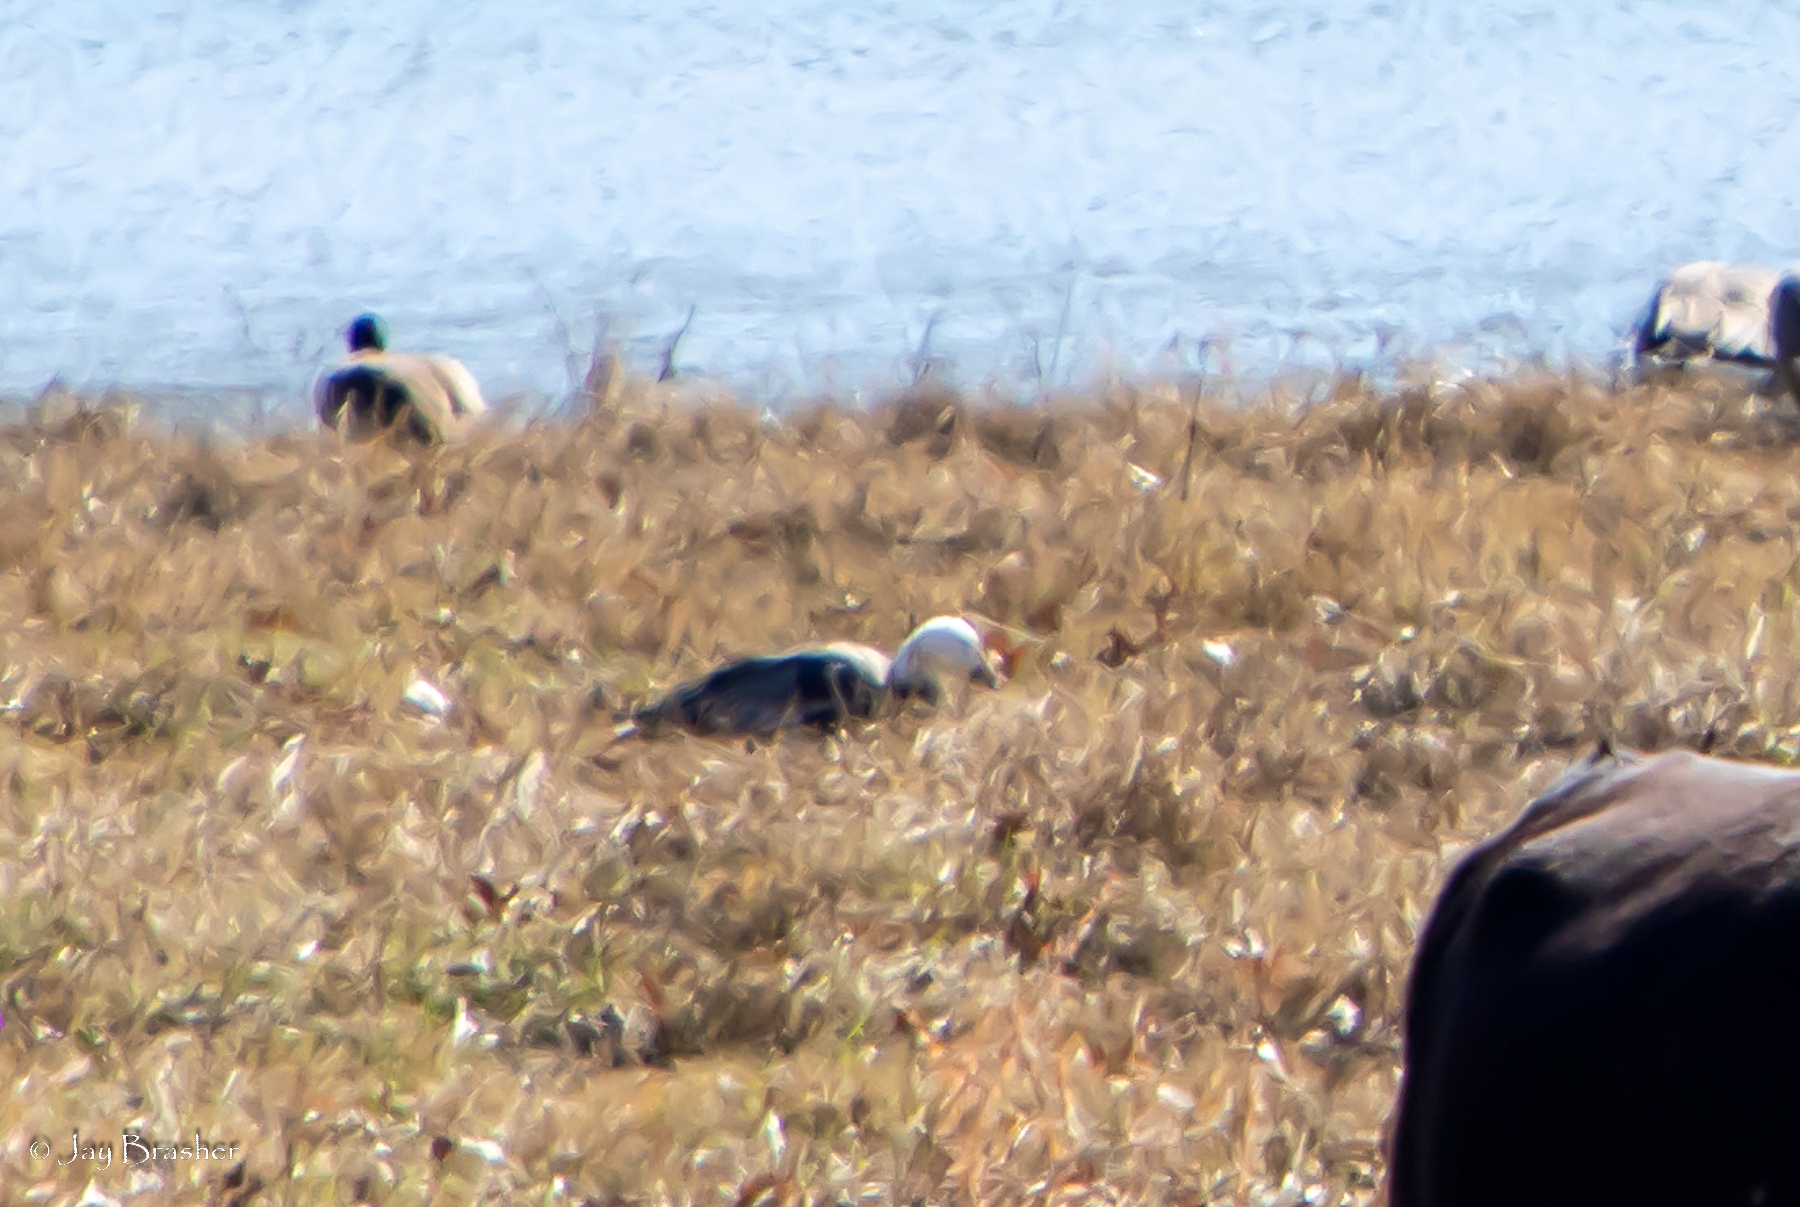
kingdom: Animalia
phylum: Chordata
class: Aves
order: Anseriformes
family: Anatidae
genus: Anser
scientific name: Anser caerulescens
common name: Snow goose
